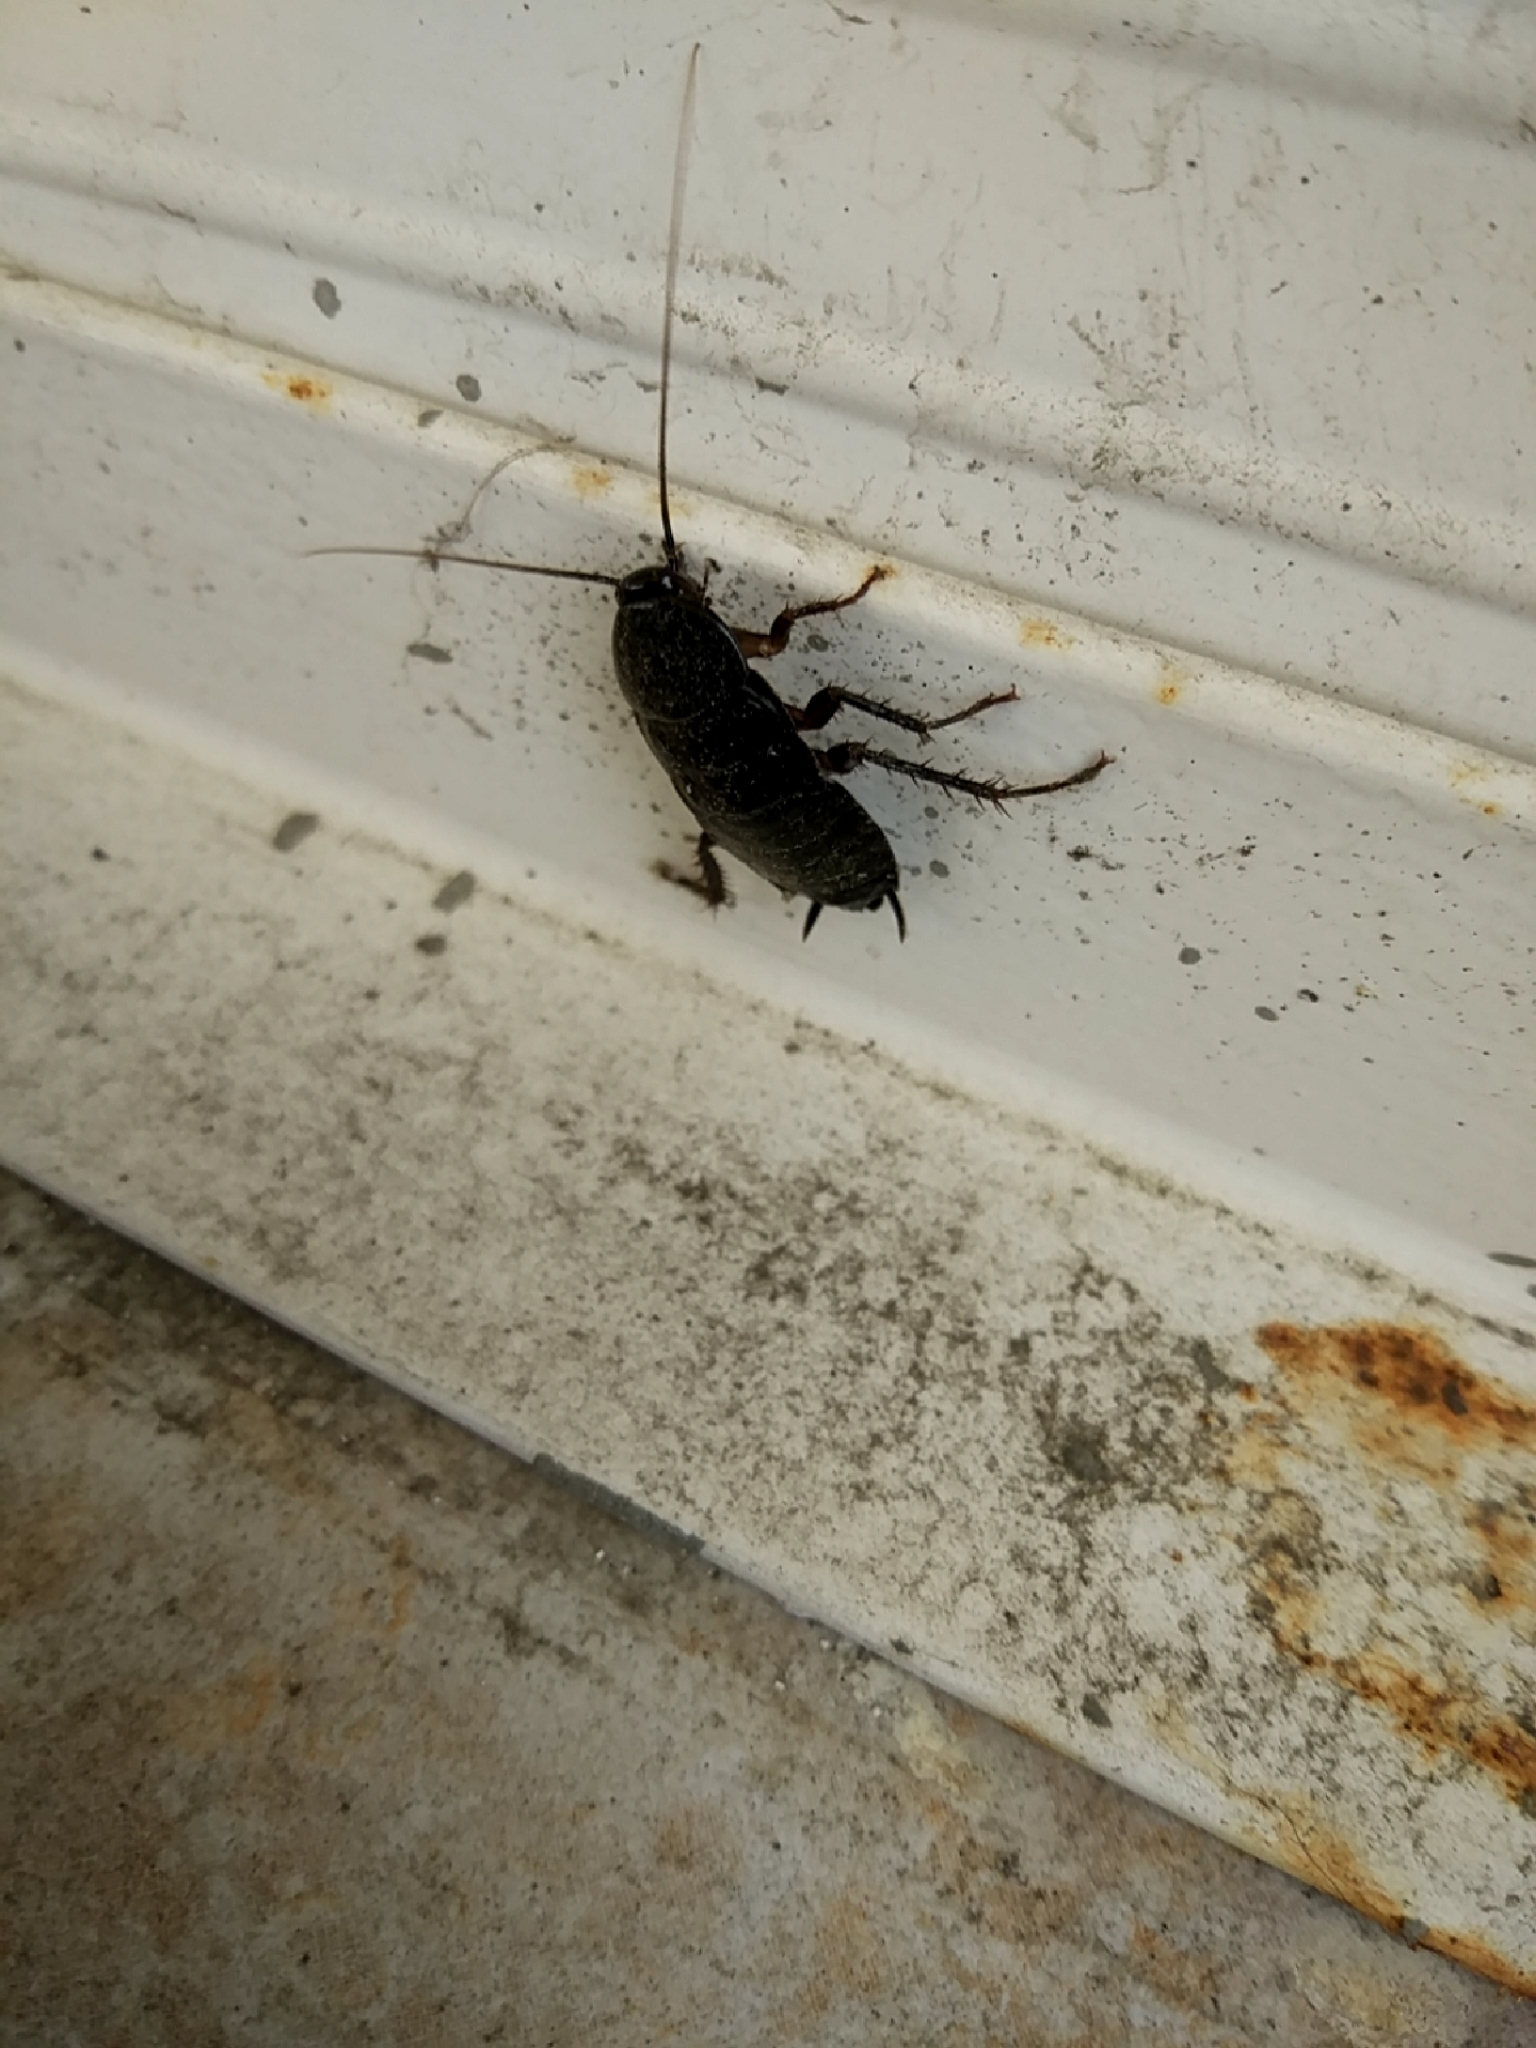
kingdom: Animalia
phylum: Arthropoda
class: Insecta
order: Blattodea
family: Blattidae
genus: Blatta
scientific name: Blatta orientalis
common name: Oriental cockroach
